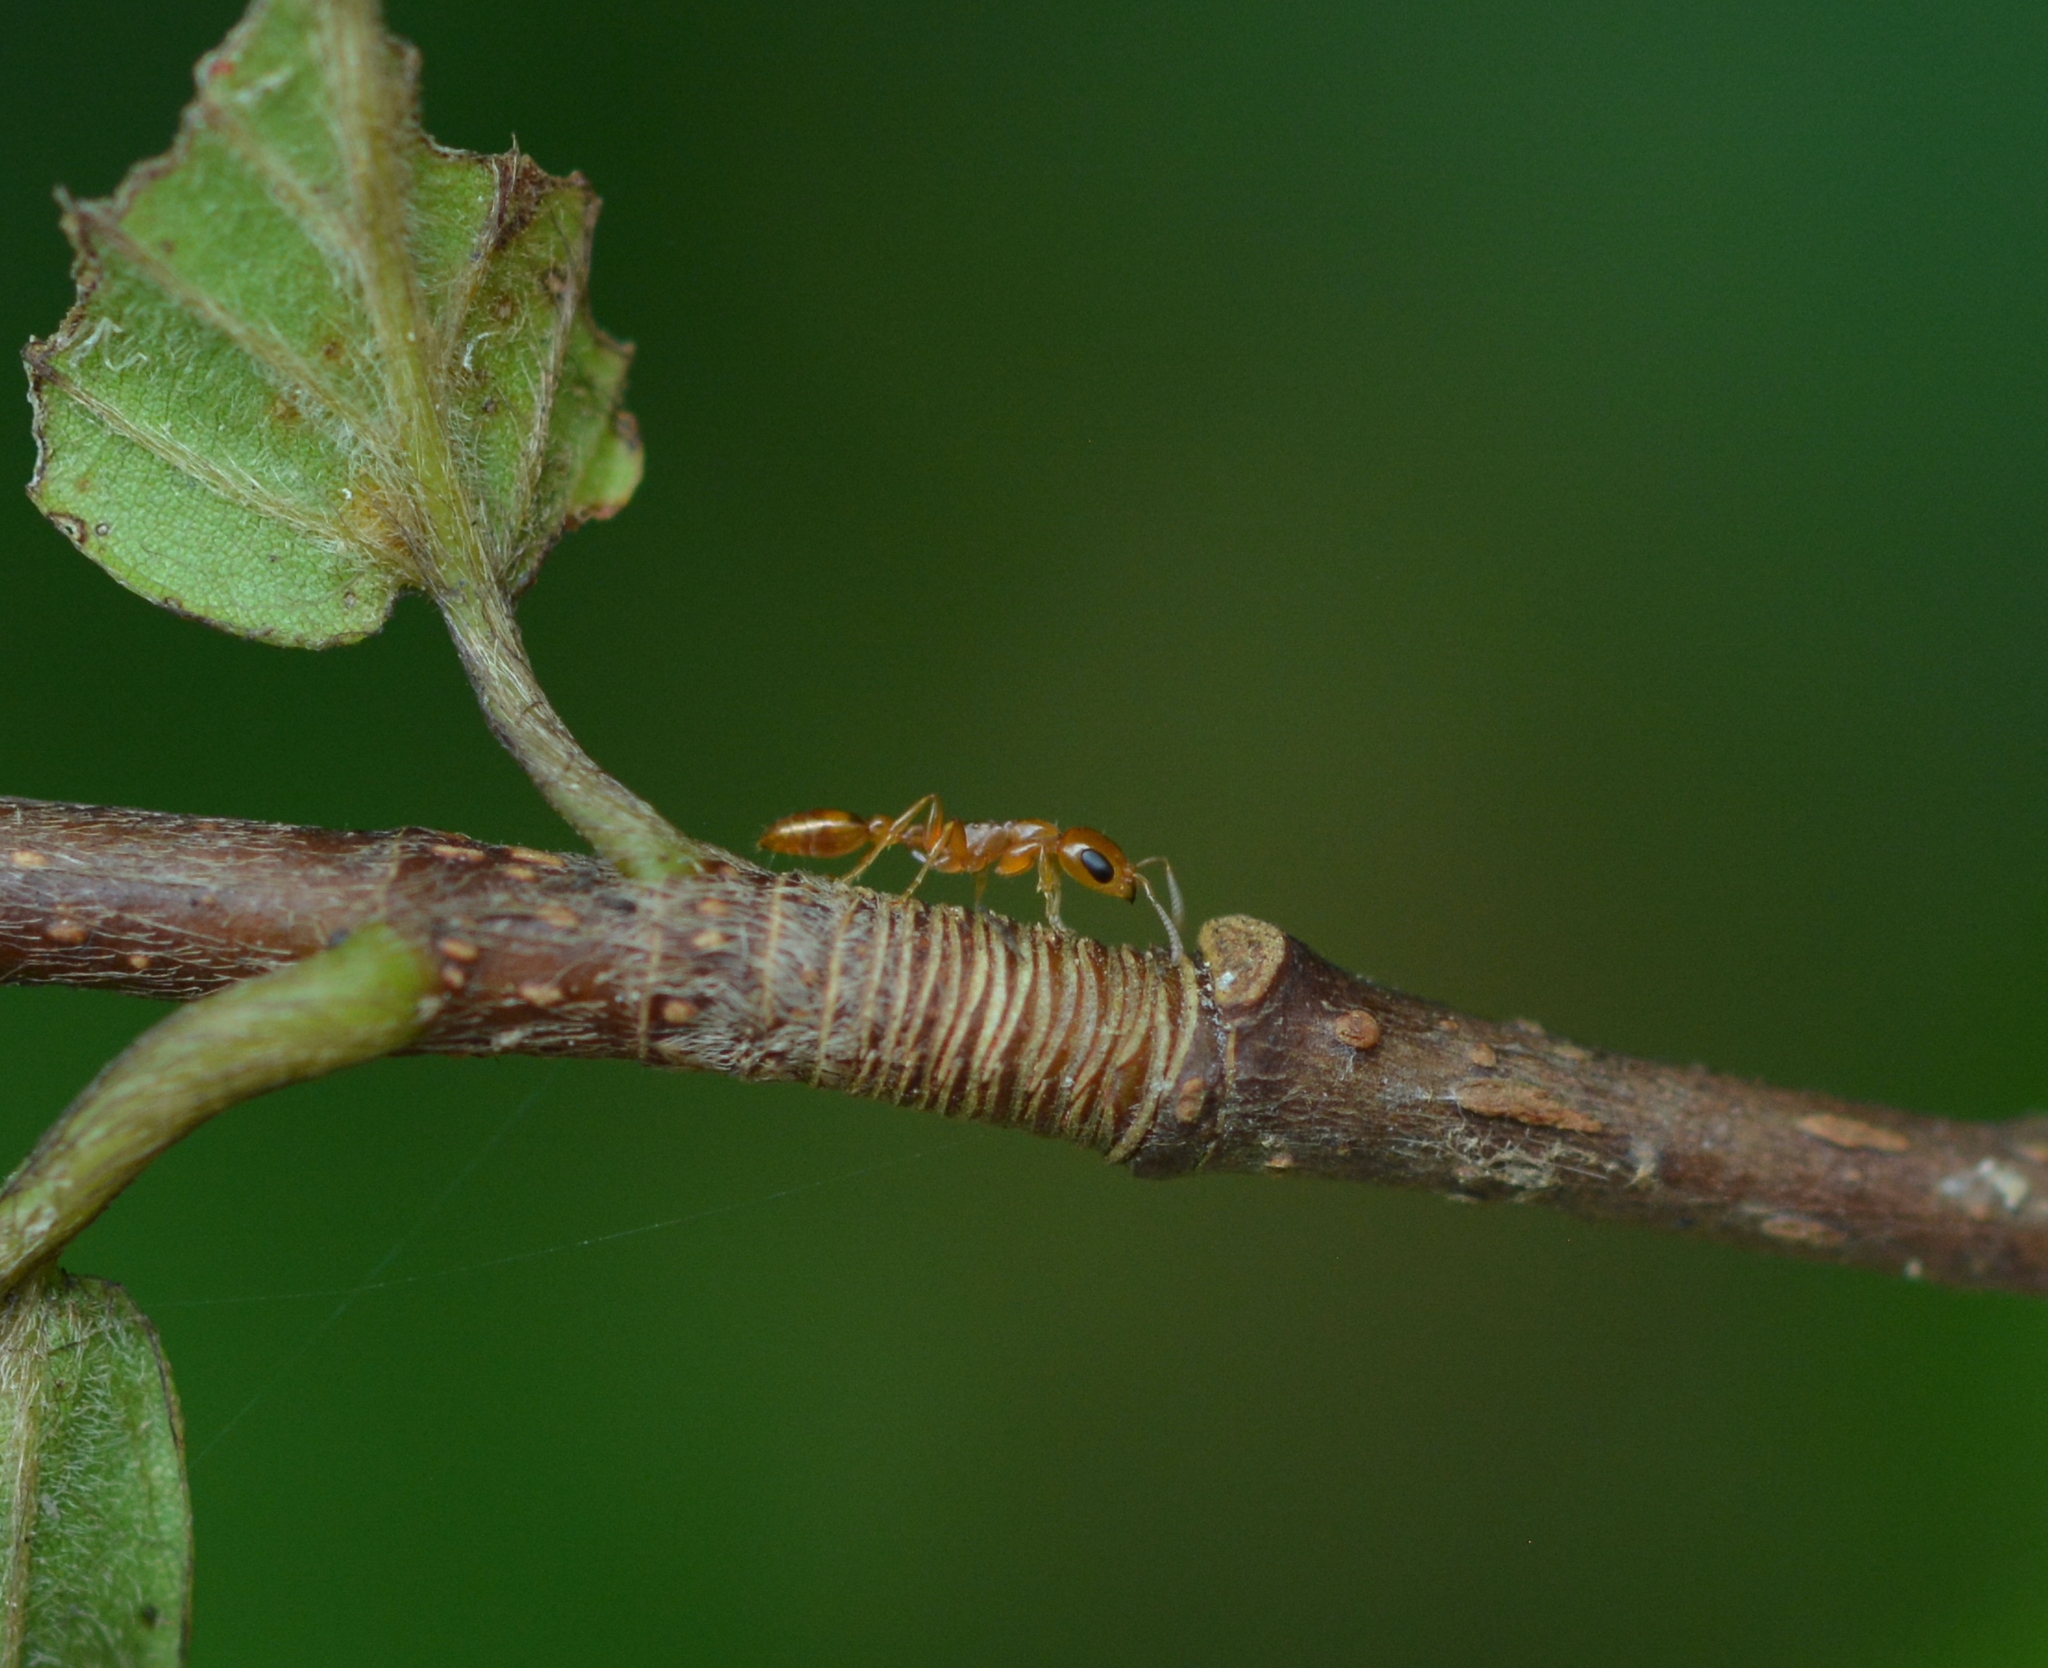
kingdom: Animalia
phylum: Arthropoda
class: Insecta
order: Hymenoptera
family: Formicidae
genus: Pseudomyrmex
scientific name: Pseudomyrmex pallidus
